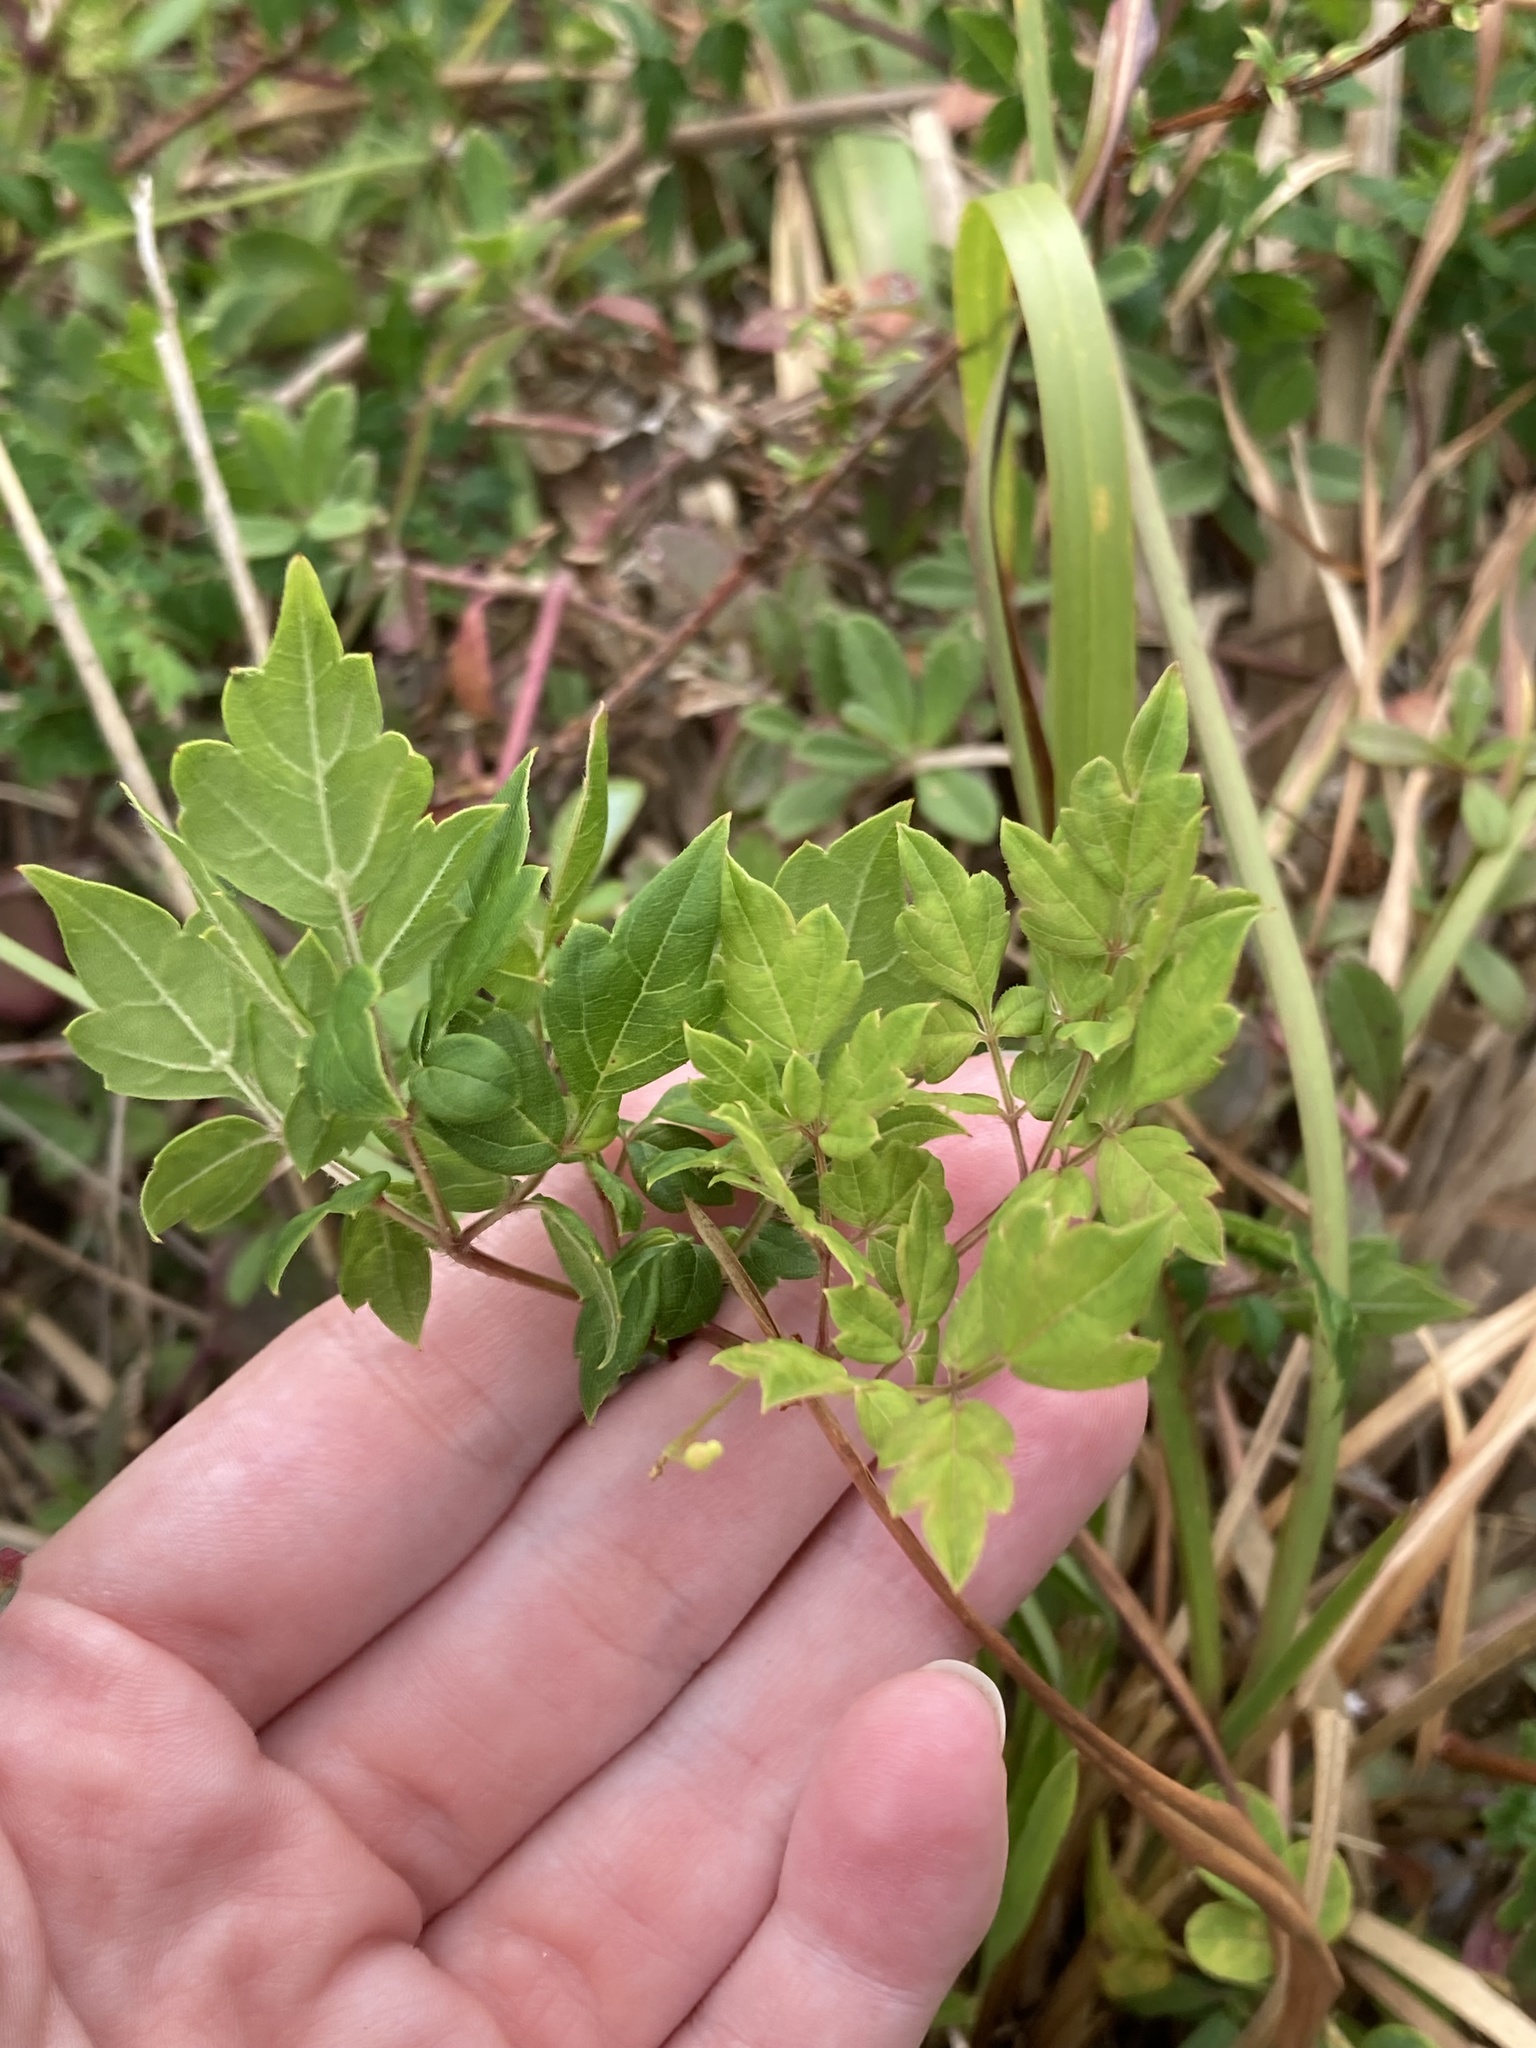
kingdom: Plantae
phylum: Tracheophyta
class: Magnoliopsida
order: Vitales
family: Vitaceae
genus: Nekemias
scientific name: Nekemias arborea
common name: Peppervine
